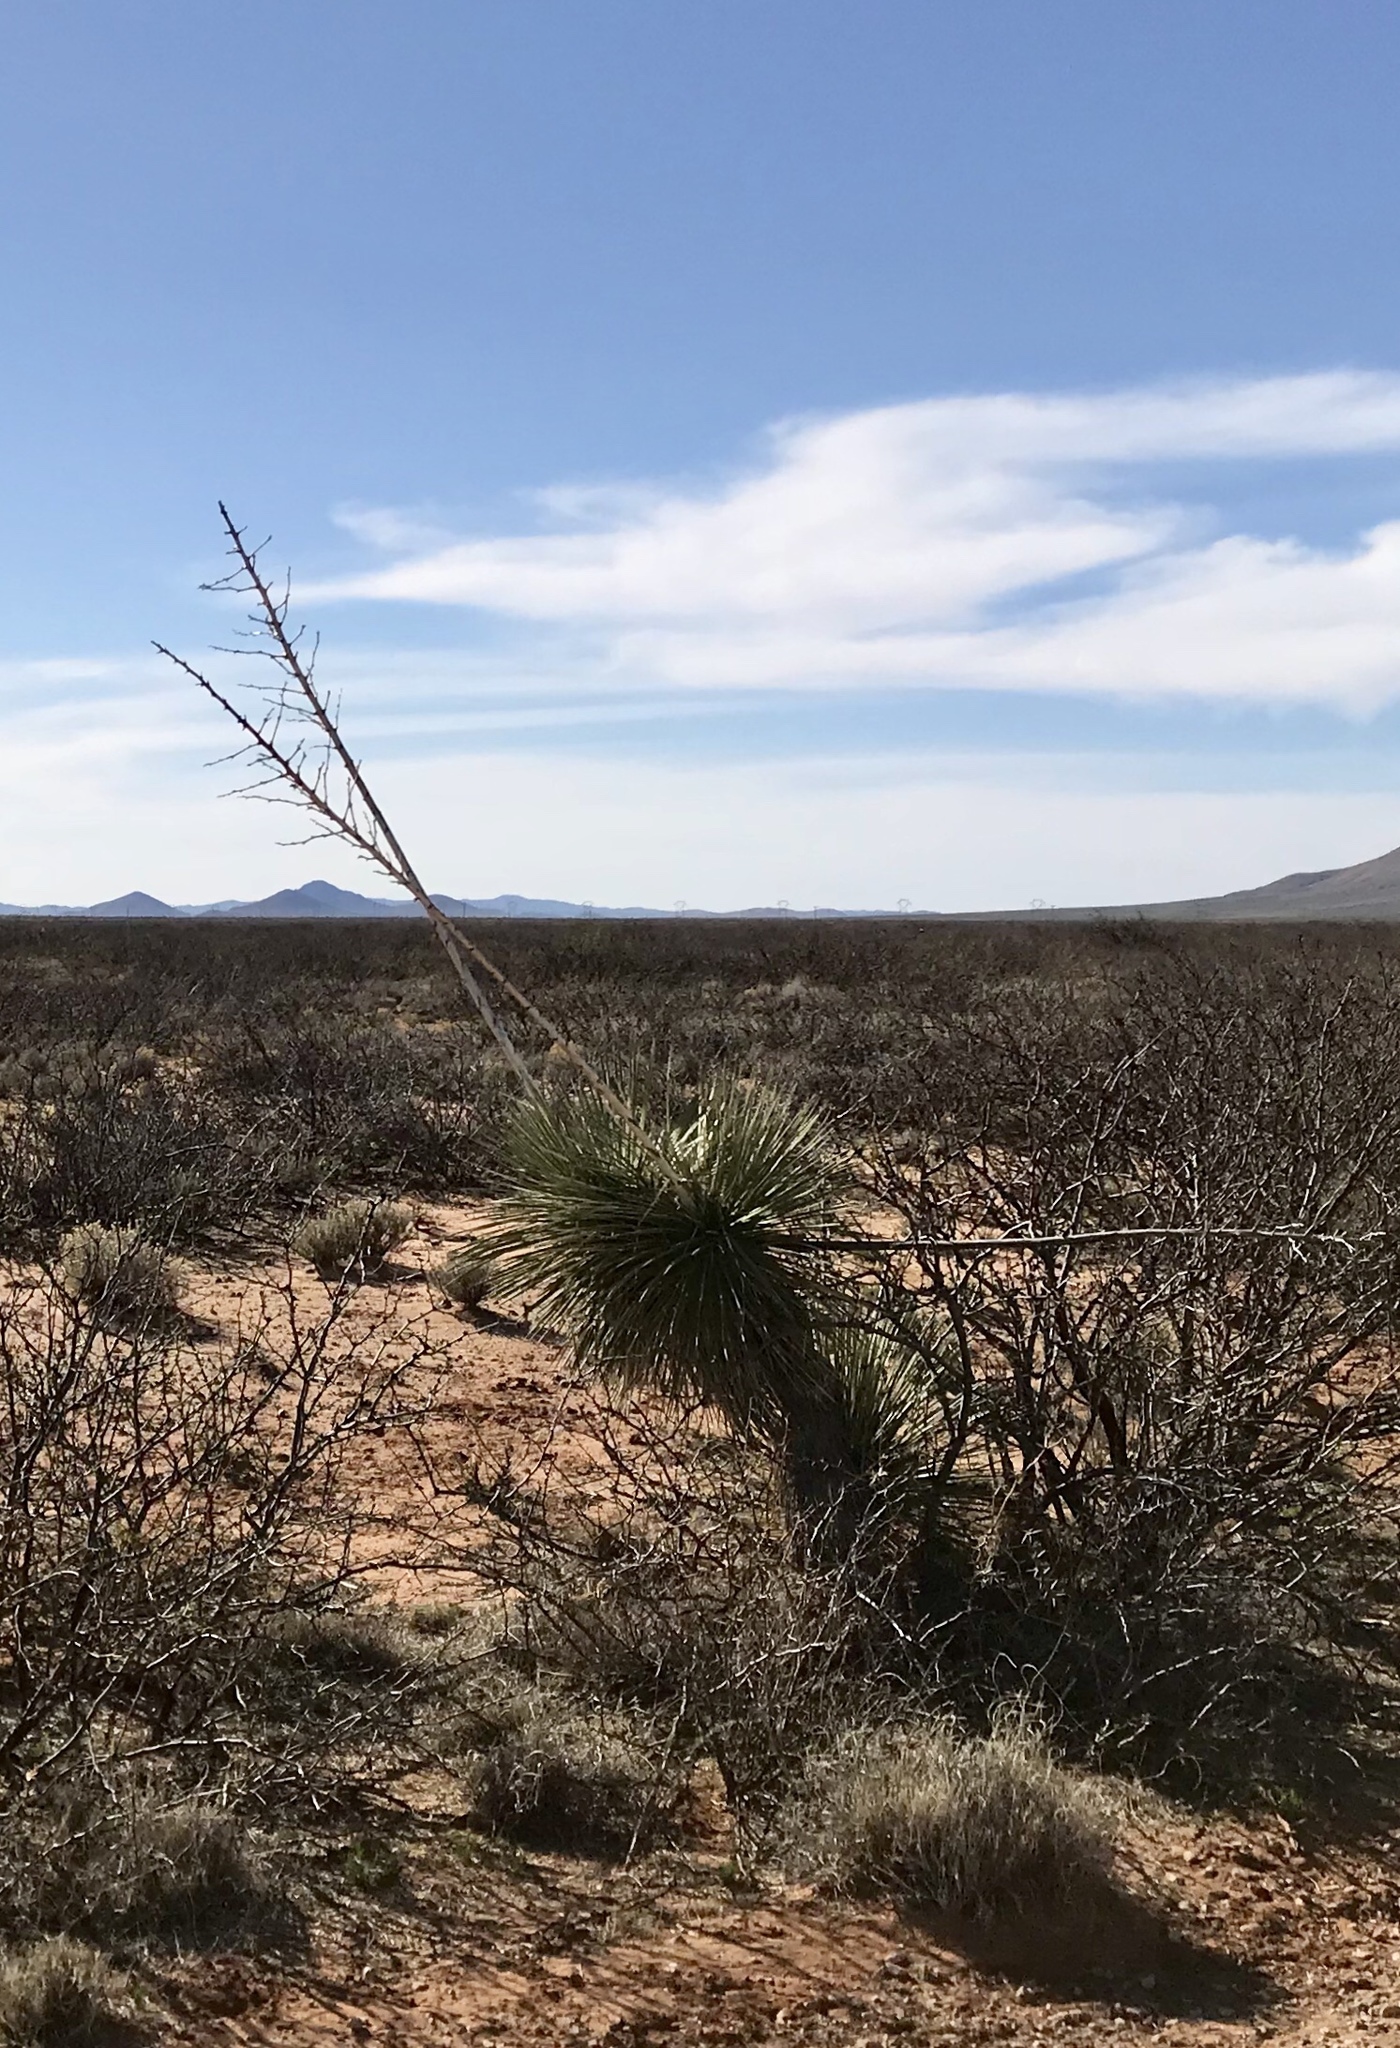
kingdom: Plantae
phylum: Tracheophyta
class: Liliopsida
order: Asparagales
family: Asparagaceae
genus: Yucca
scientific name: Yucca elata
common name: Palmella
